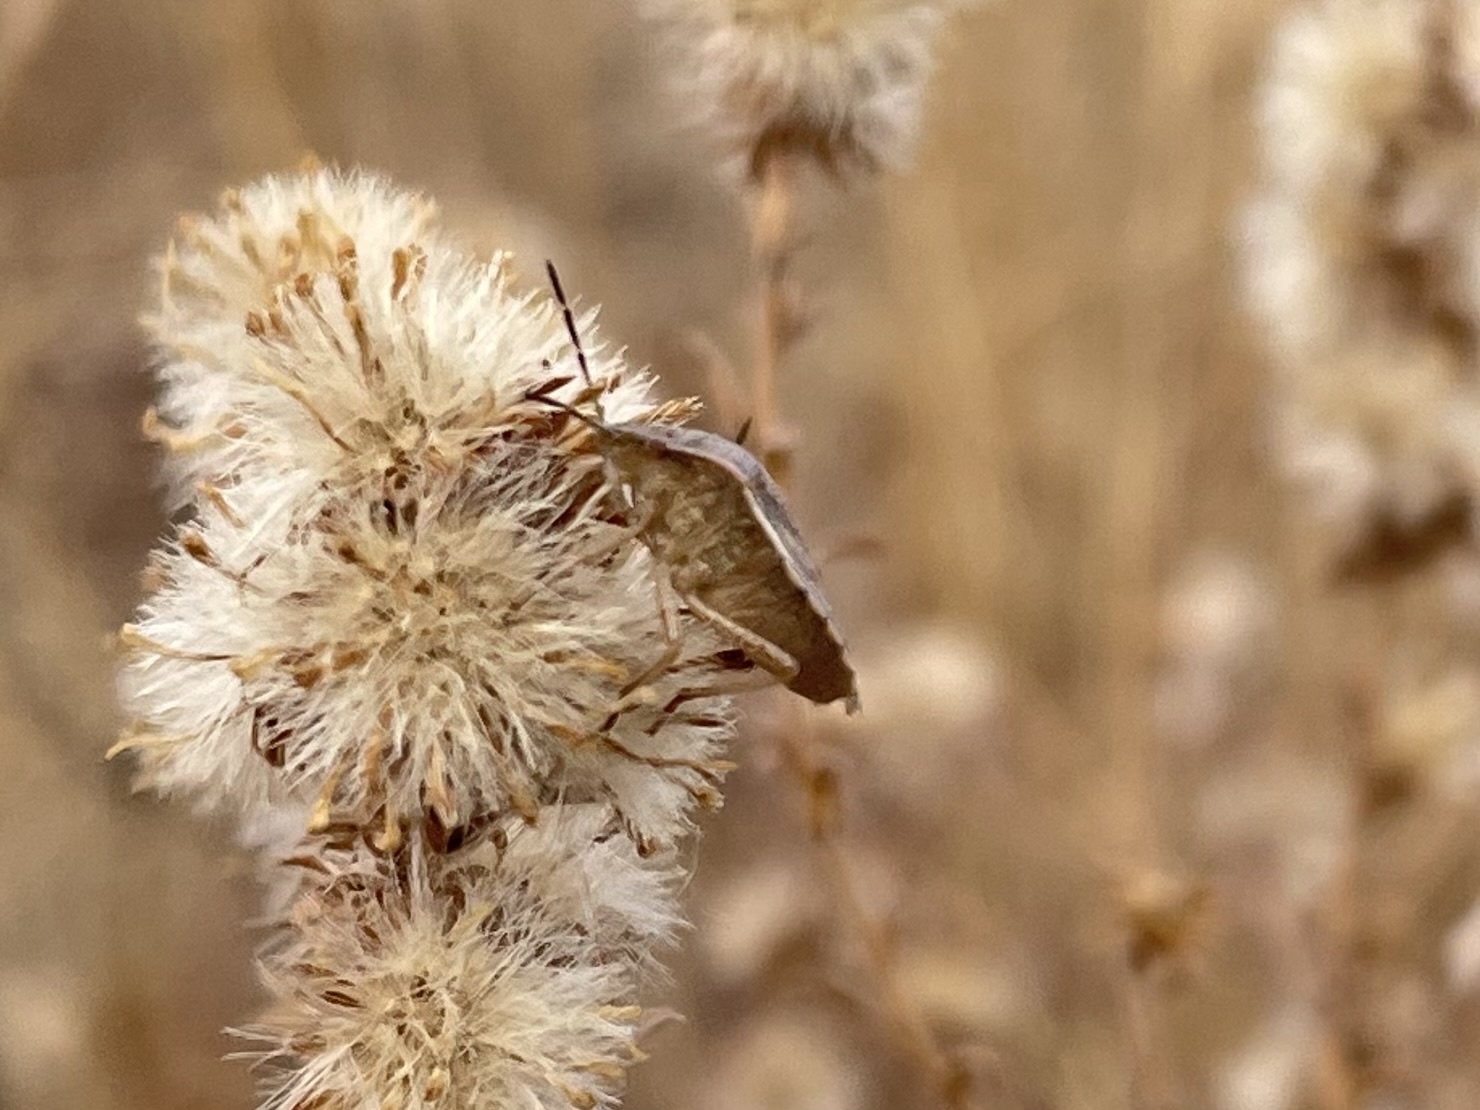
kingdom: Animalia
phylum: Arthropoda
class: Insecta
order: Hemiptera
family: Pentatomidae
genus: Thyanta
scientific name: Thyanta accerra
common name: Stink bug
